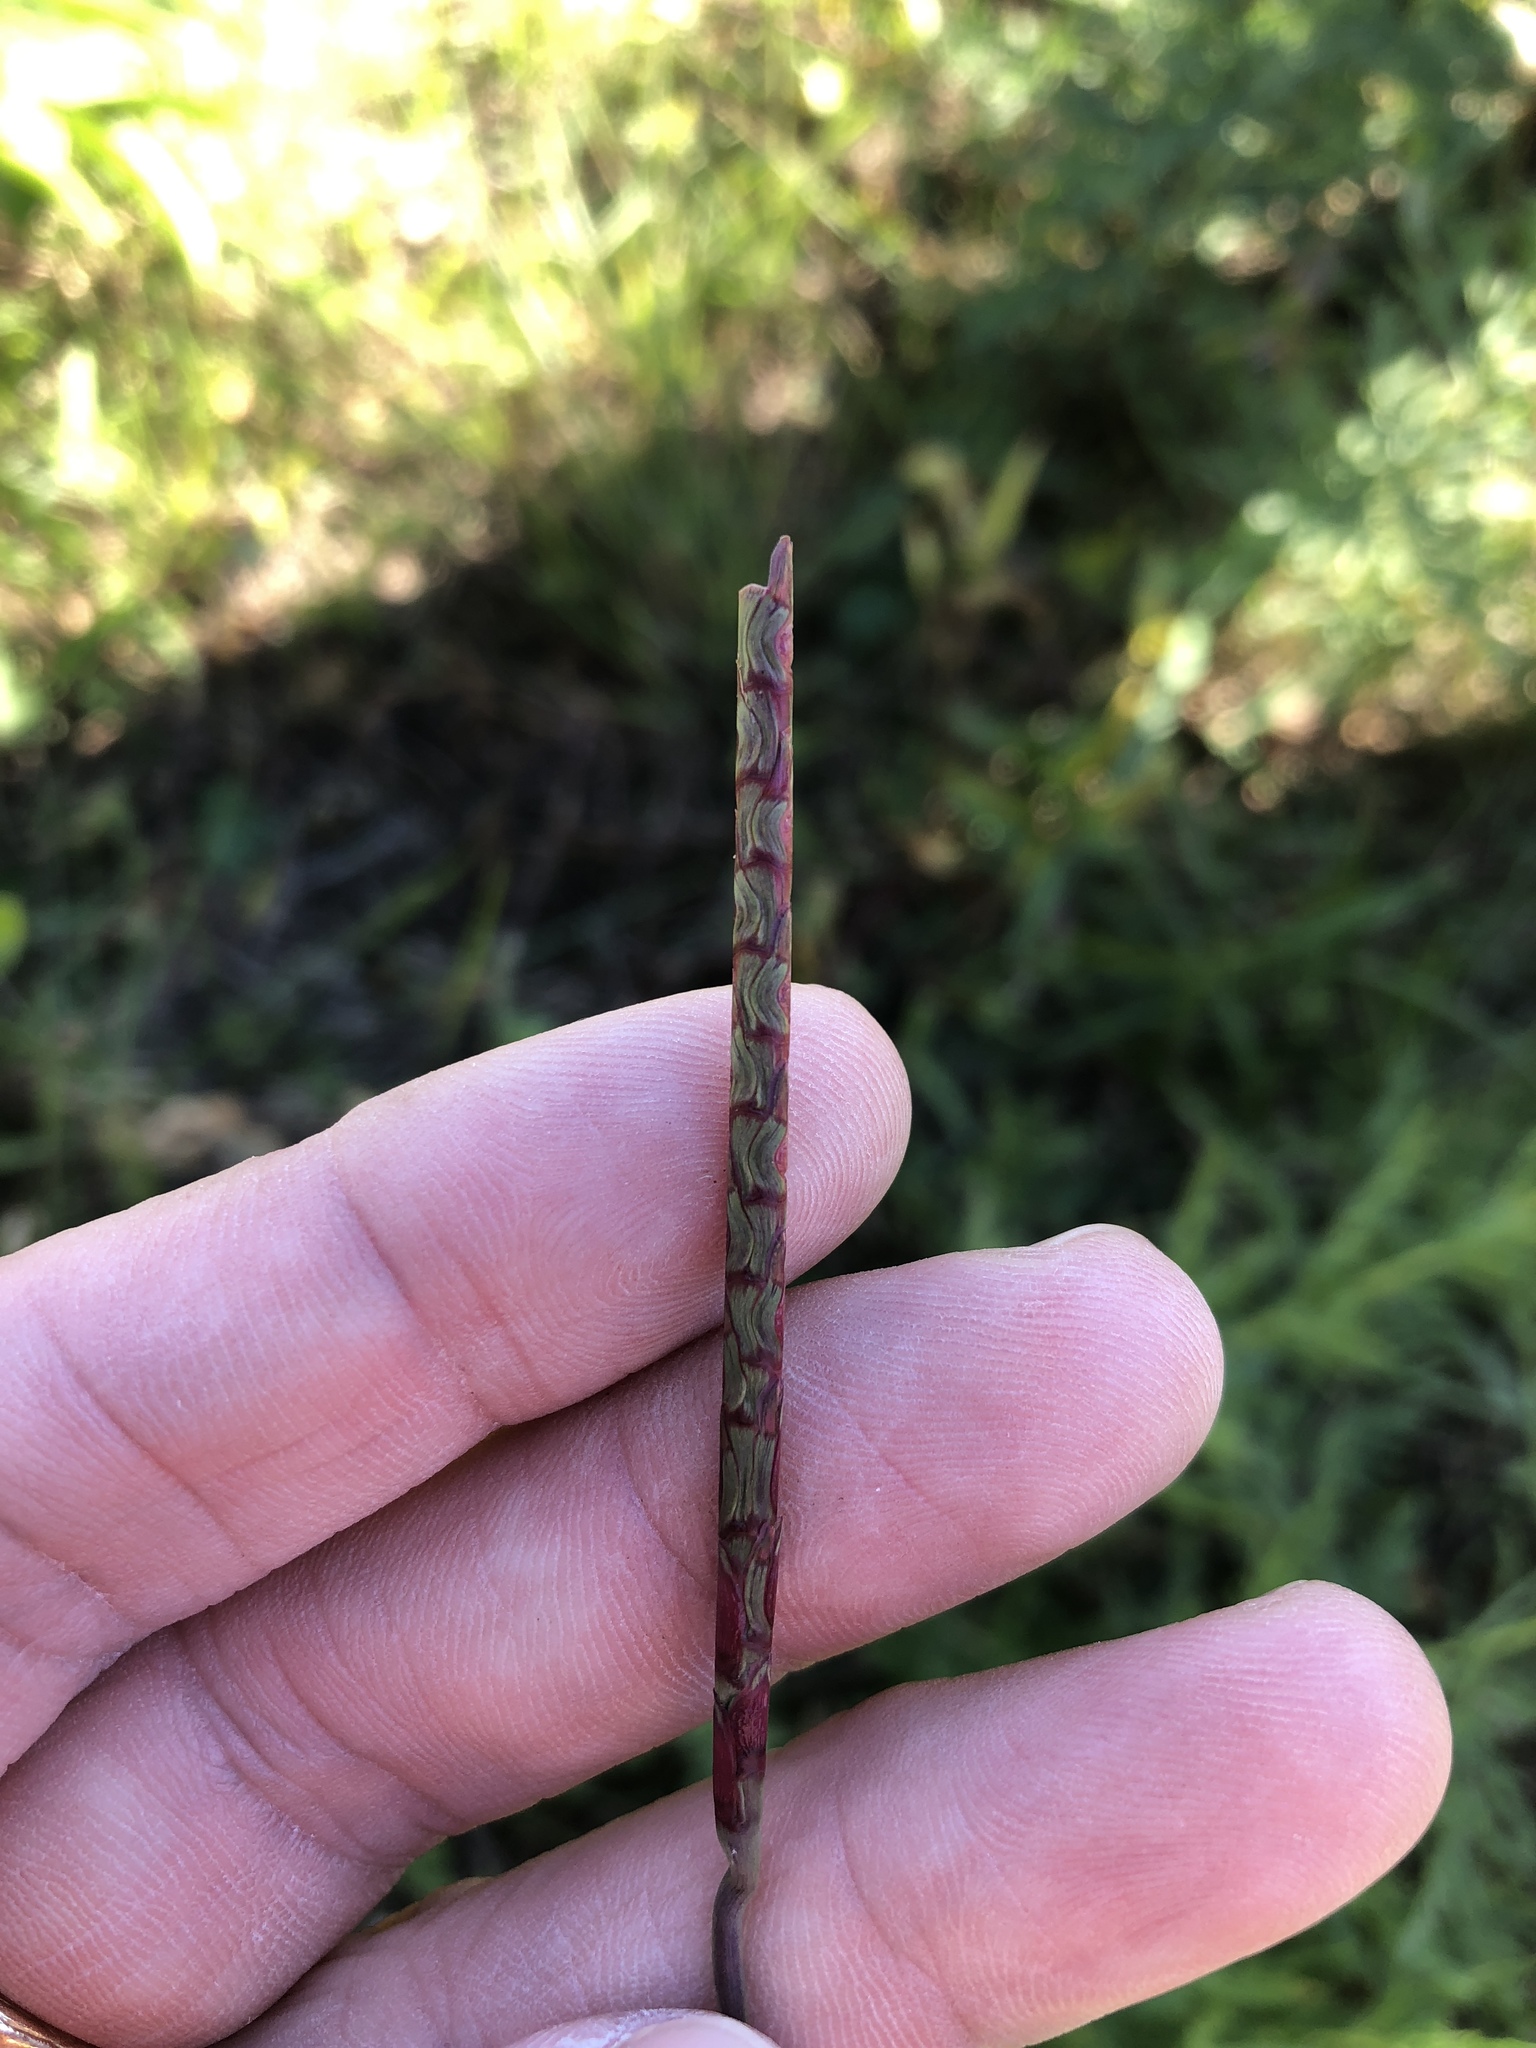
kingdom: Plantae
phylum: Tracheophyta
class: Liliopsida
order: Poales
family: Poaceae
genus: Rottboellia
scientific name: Rottboellia campestris
